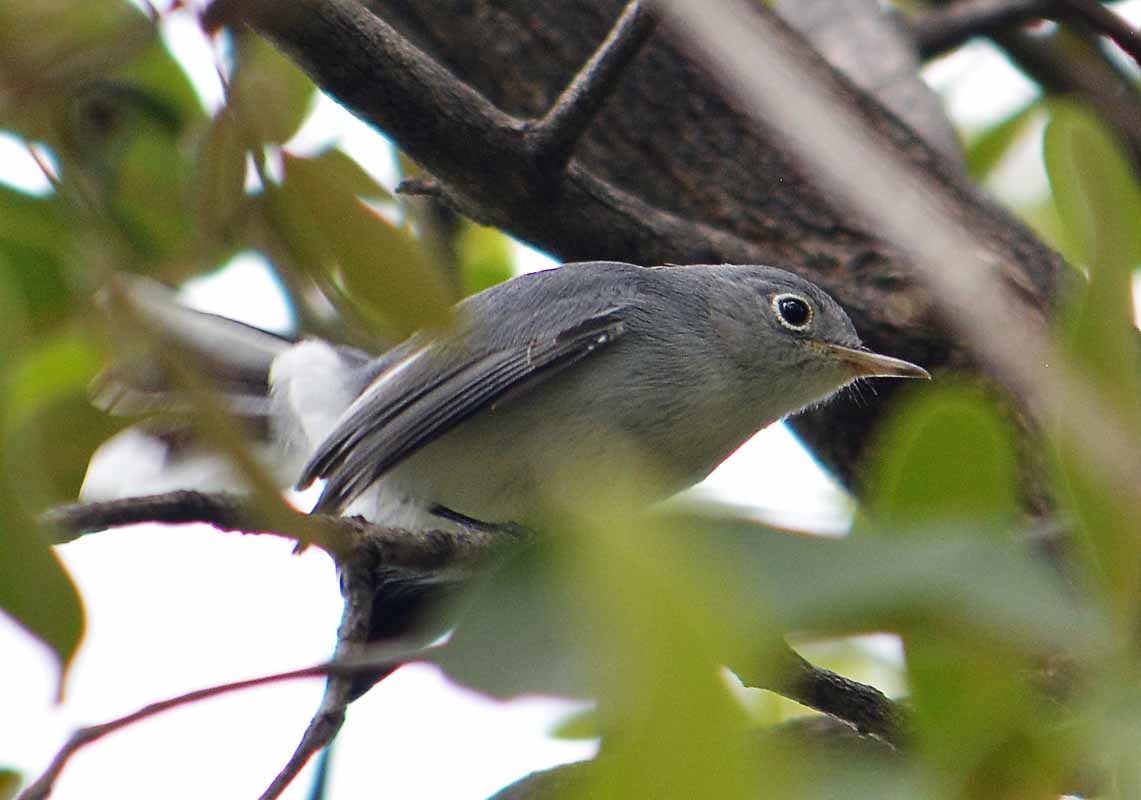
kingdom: Animalia
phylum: Chordata
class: Aves
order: Passeriformes
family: Polioptilidae
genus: Polioptila
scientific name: Polioptila caerulea
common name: Blue-gray gnatcatcher
